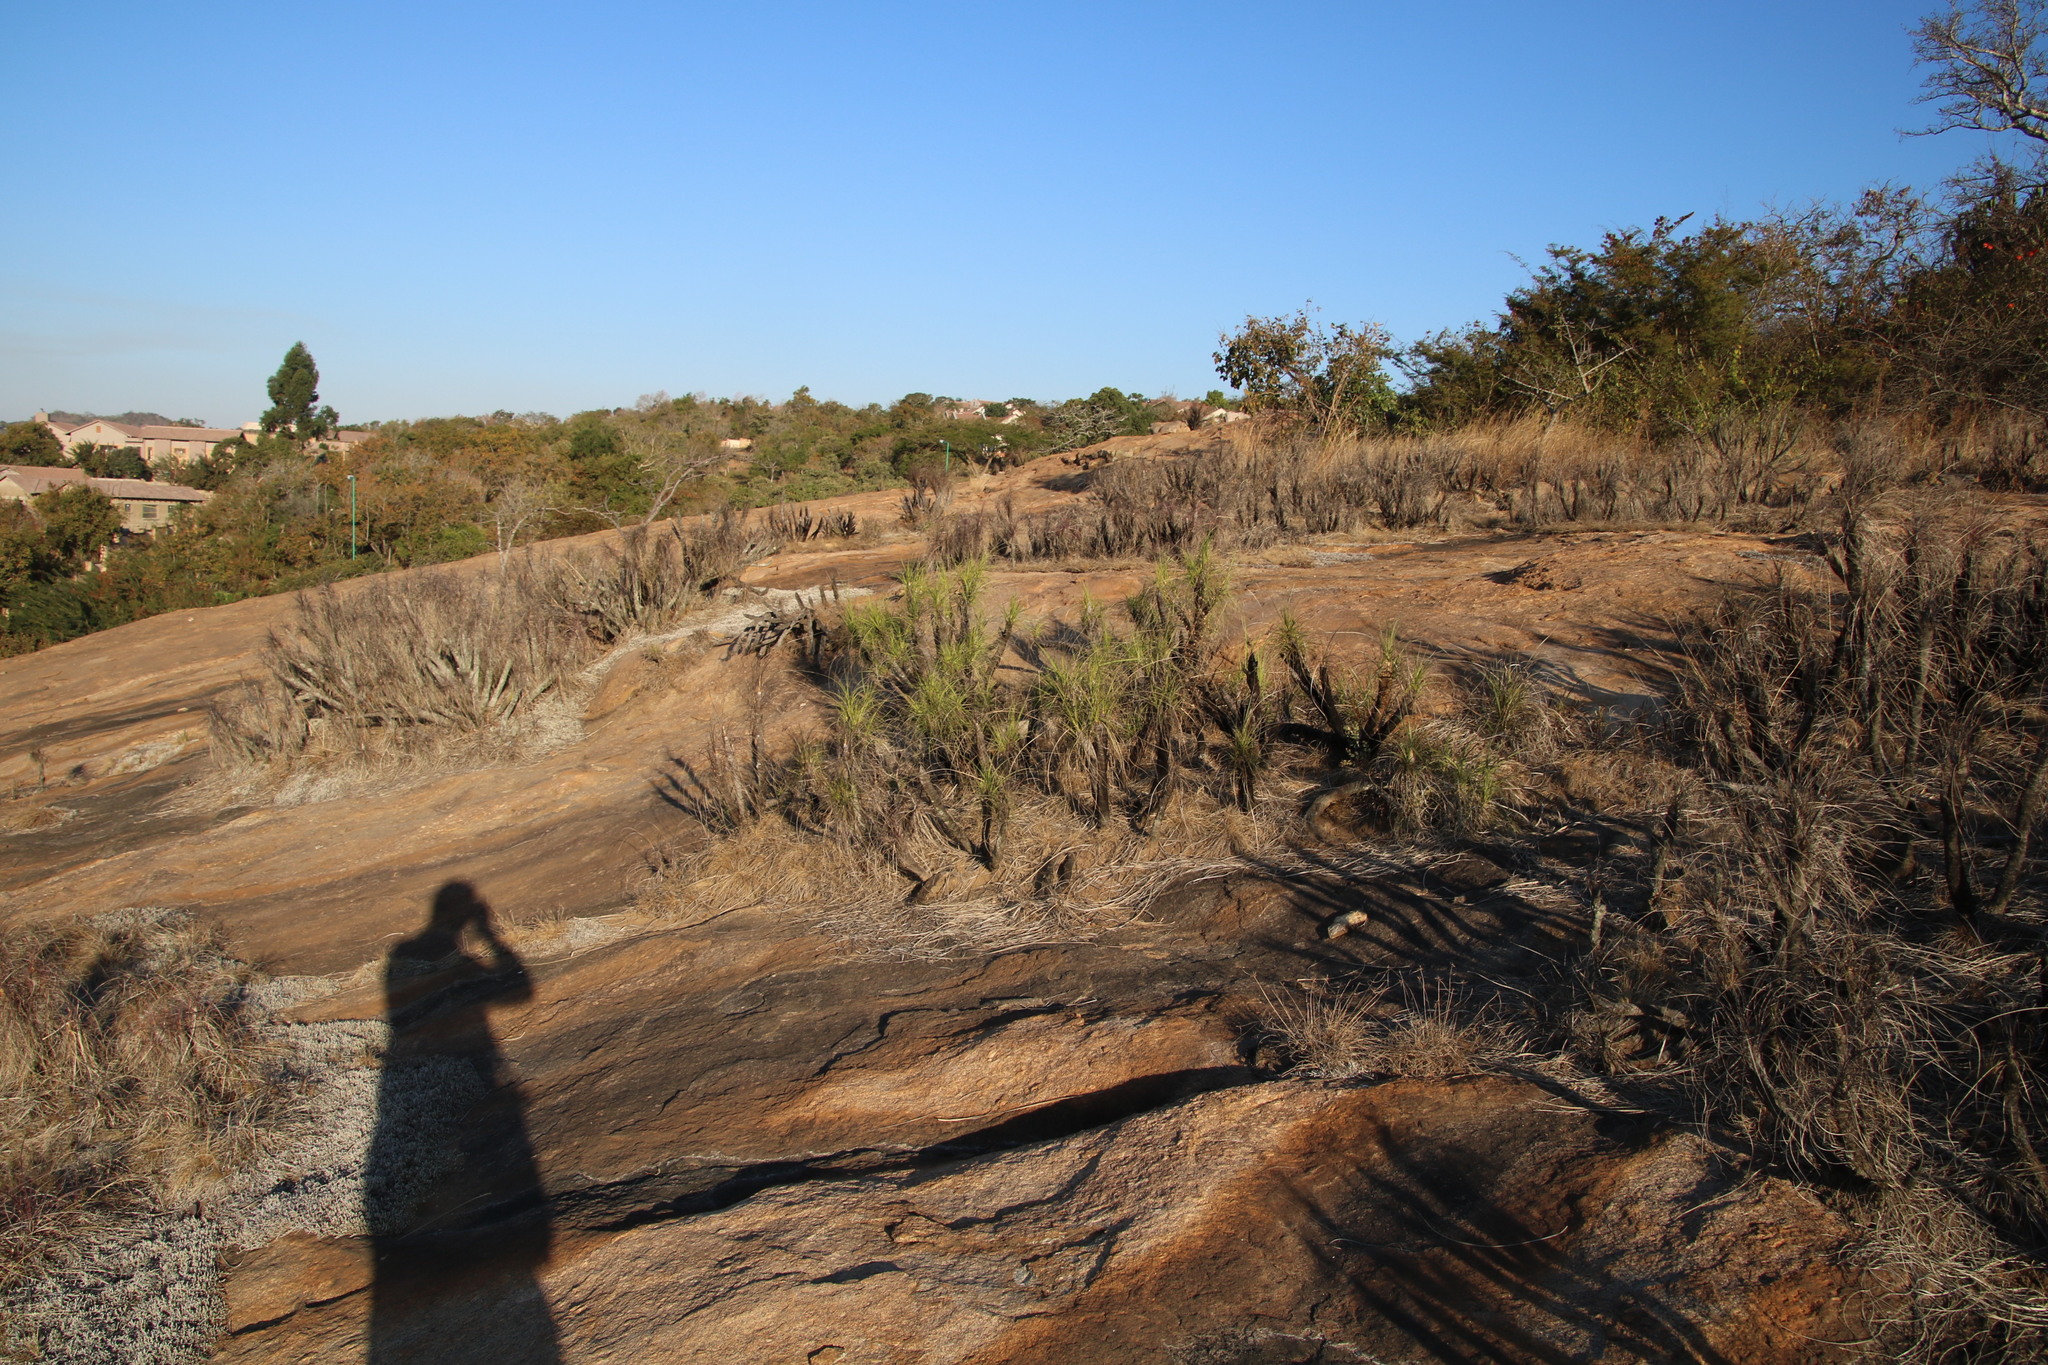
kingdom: Plantae
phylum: Tracheophyta
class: Liliopsida
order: Pandanales
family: Velloziaceae
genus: Xerophyta
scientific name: Xerophyta retinervis
